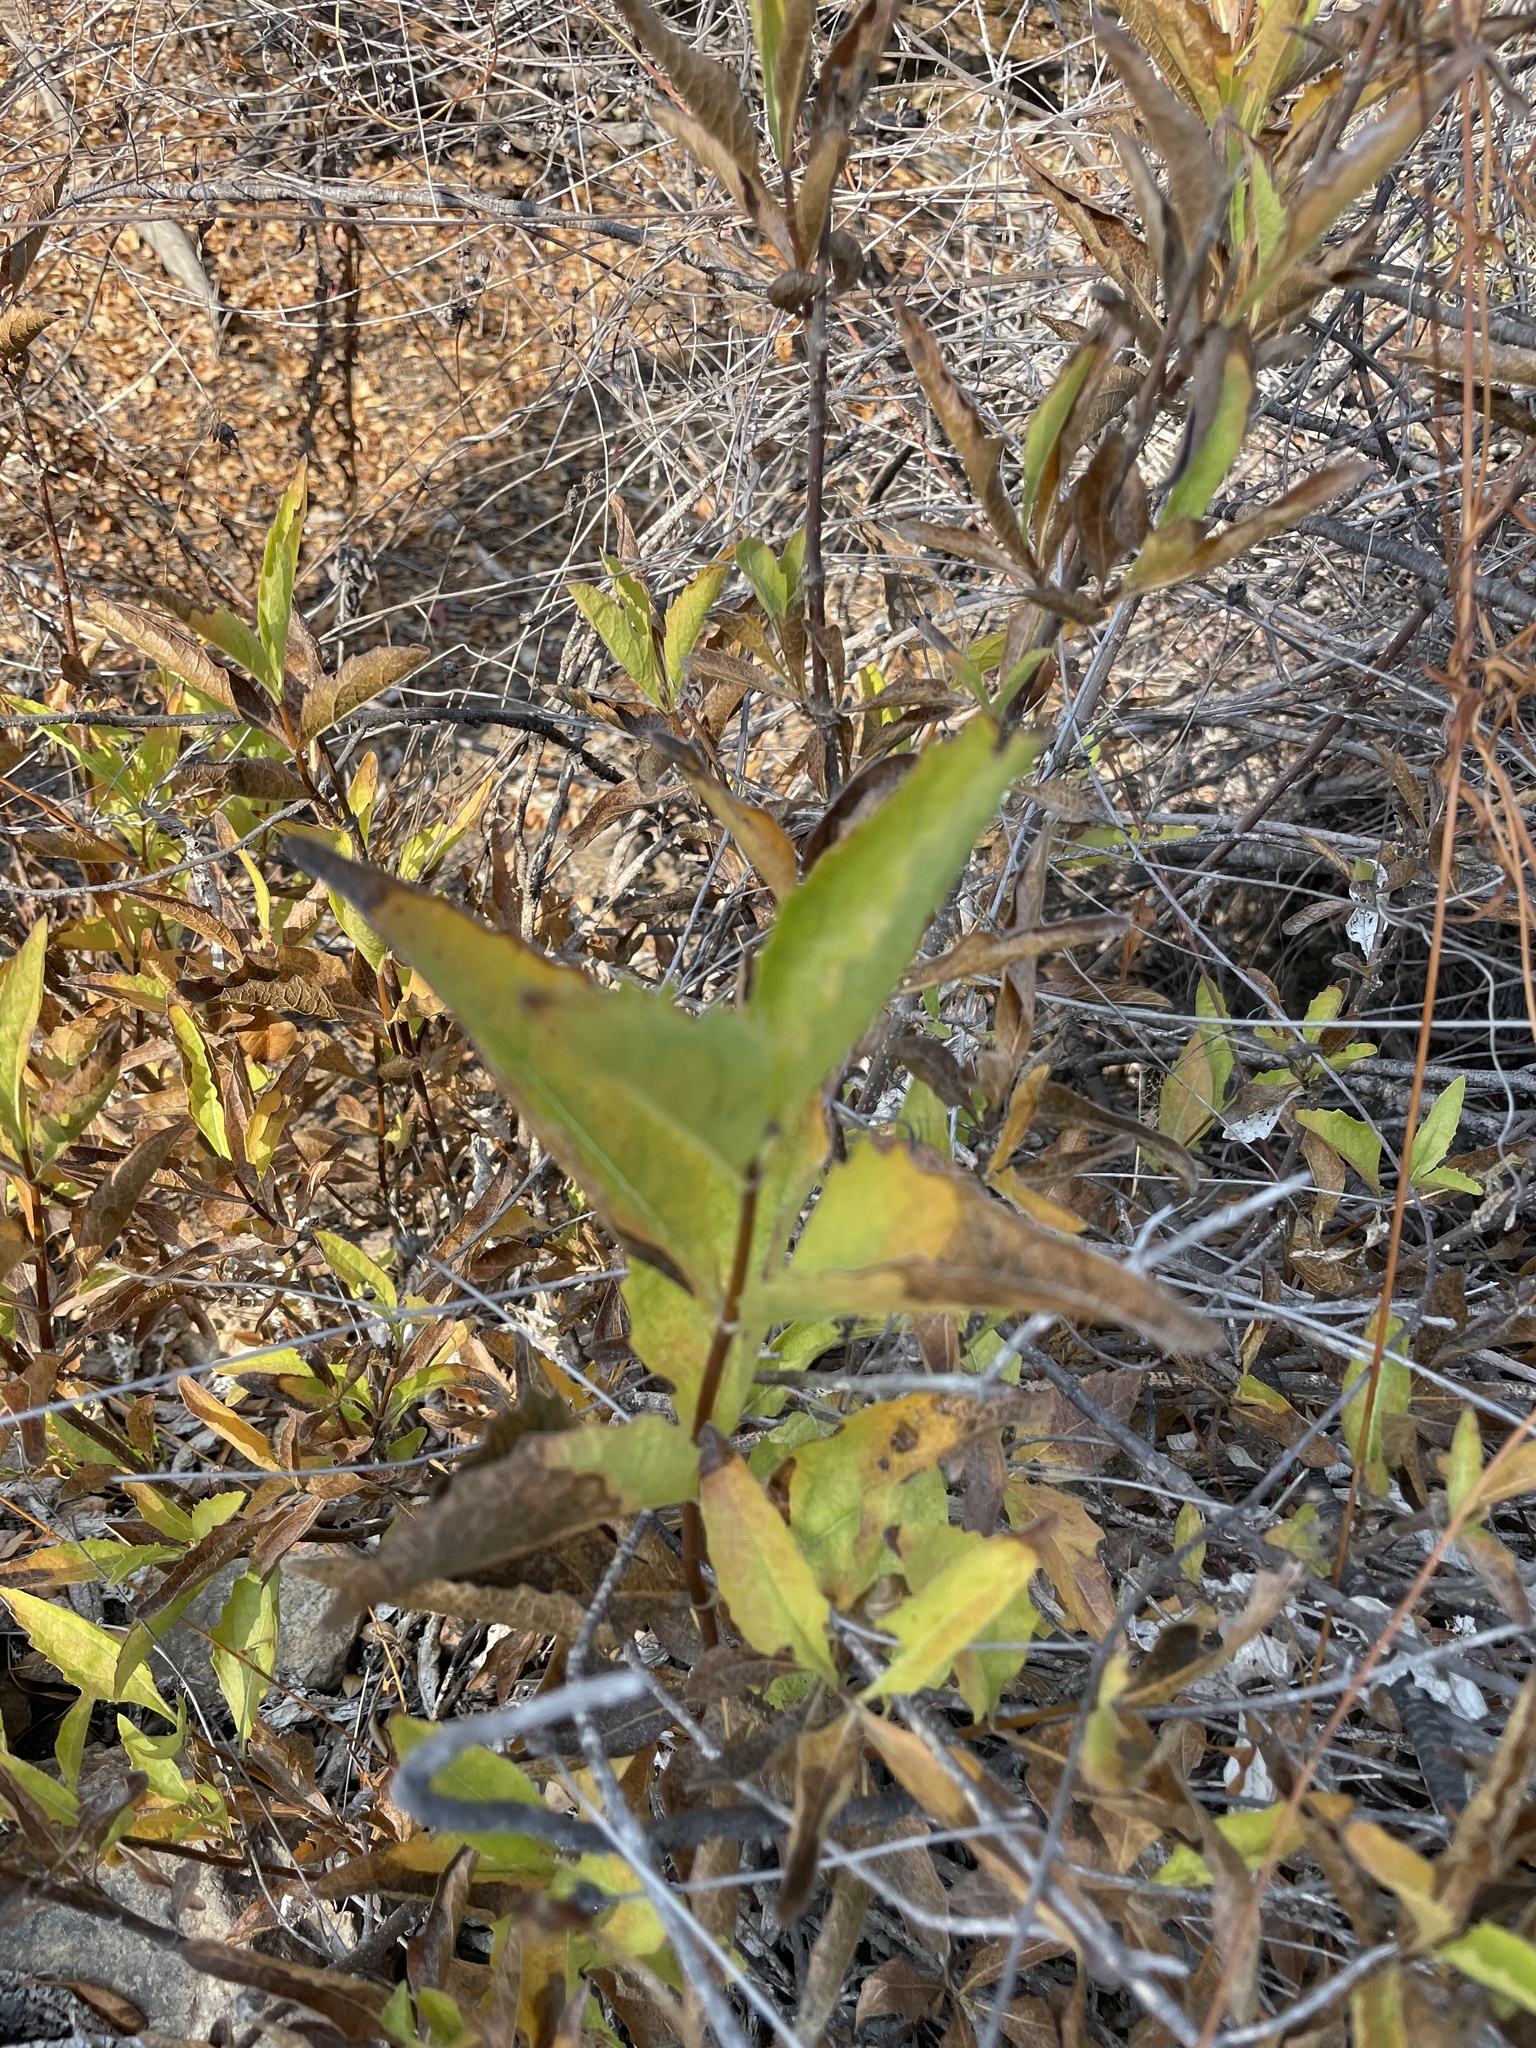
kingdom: Plantae
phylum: Tracheophyta
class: Magnoliopsida
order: Asterales
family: Asteraceae
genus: Verbesina
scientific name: Verbesina dissita
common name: Big-leaf crownbeard
